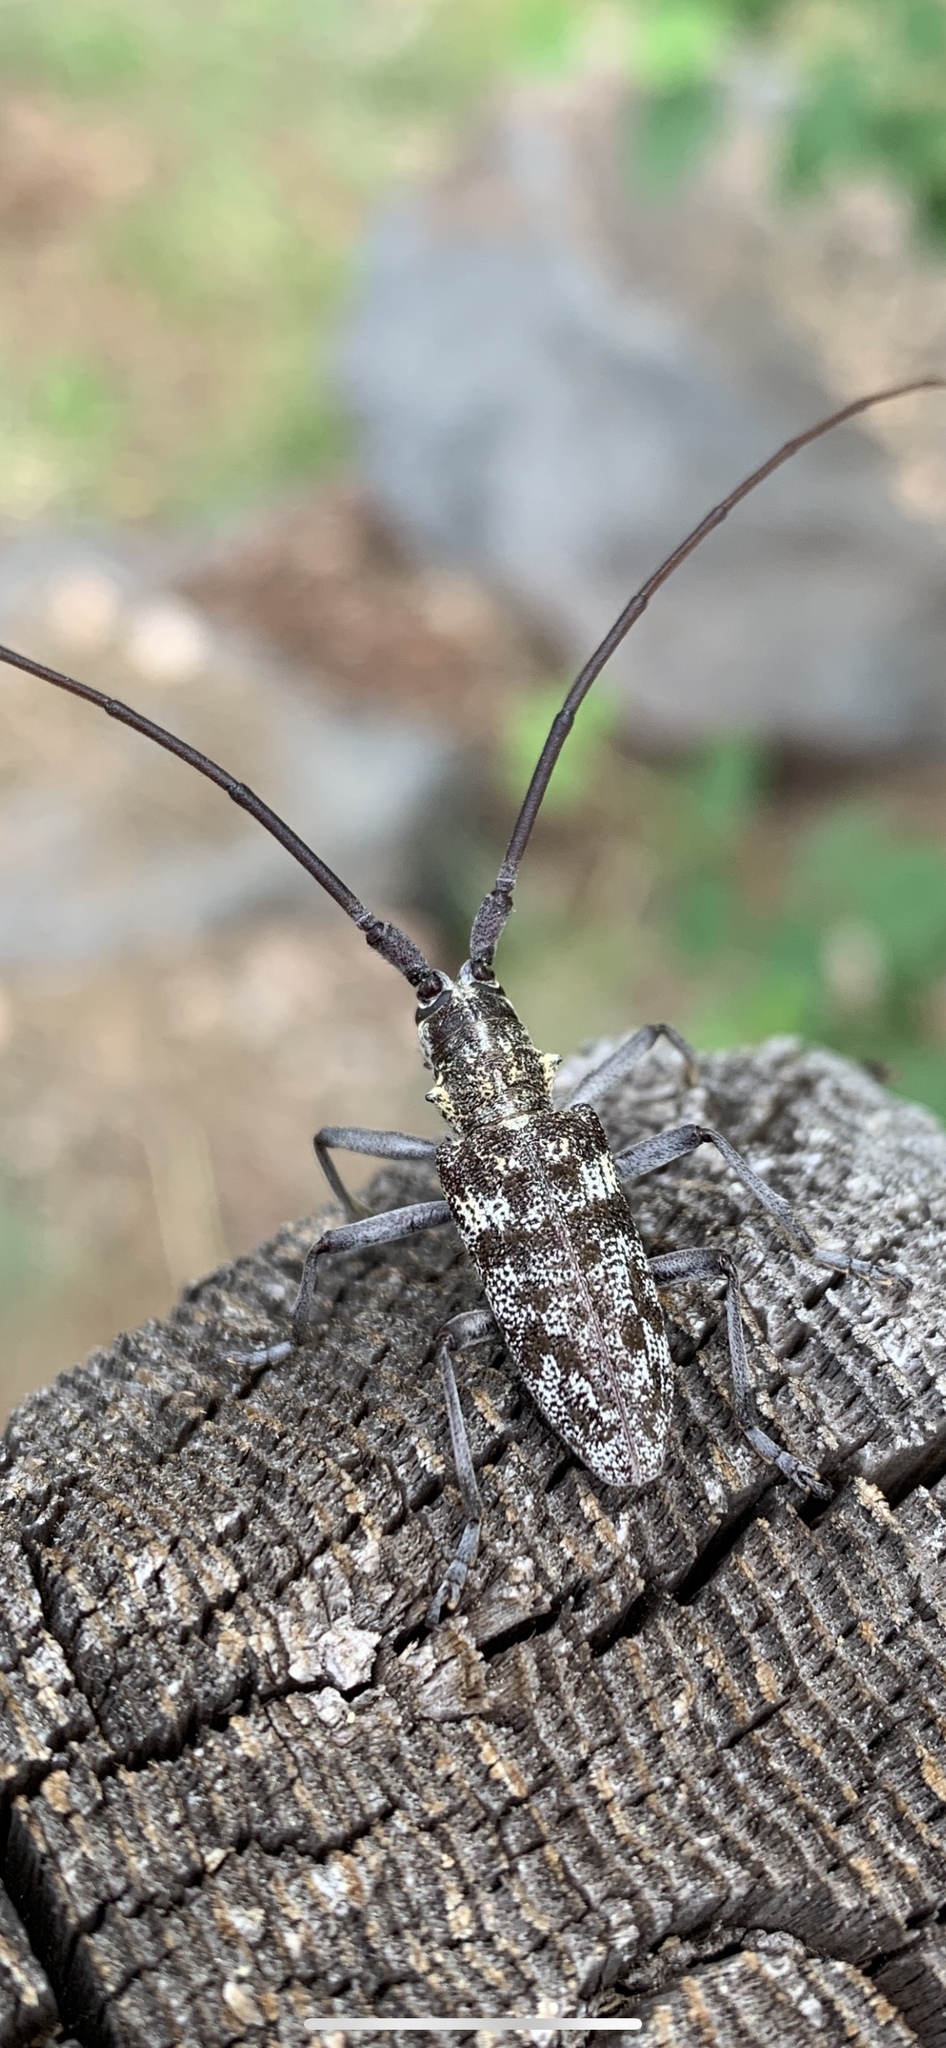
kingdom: Animalia
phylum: Arthropoda
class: Insecta
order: Coleoptera
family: Cerambycidae
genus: Monochamus
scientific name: Monochamus clamator
